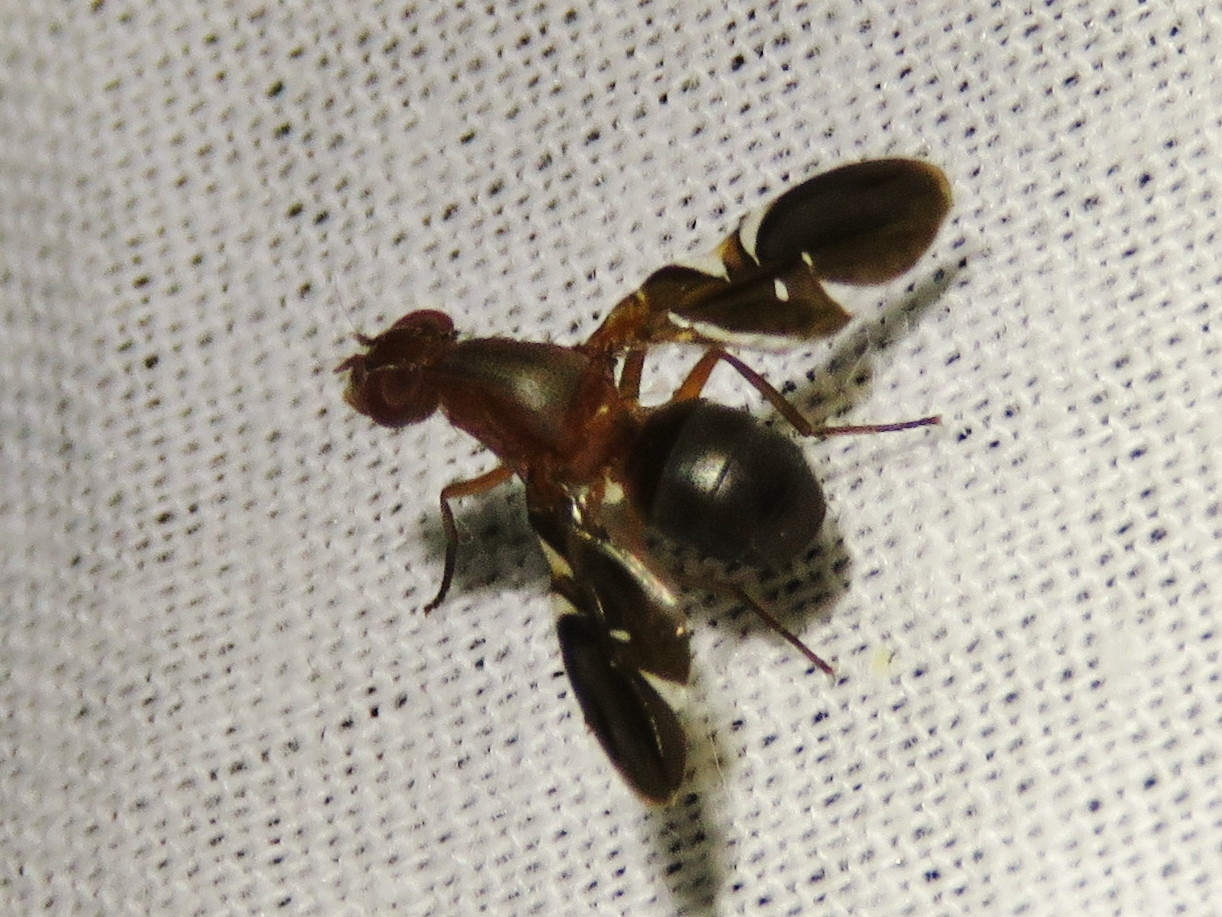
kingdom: Animalia
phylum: Arthropoda
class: Insecta
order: Diptera
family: Ulidiidae
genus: Delphinia
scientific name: Delphinia picta
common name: Common picture-winged fly
